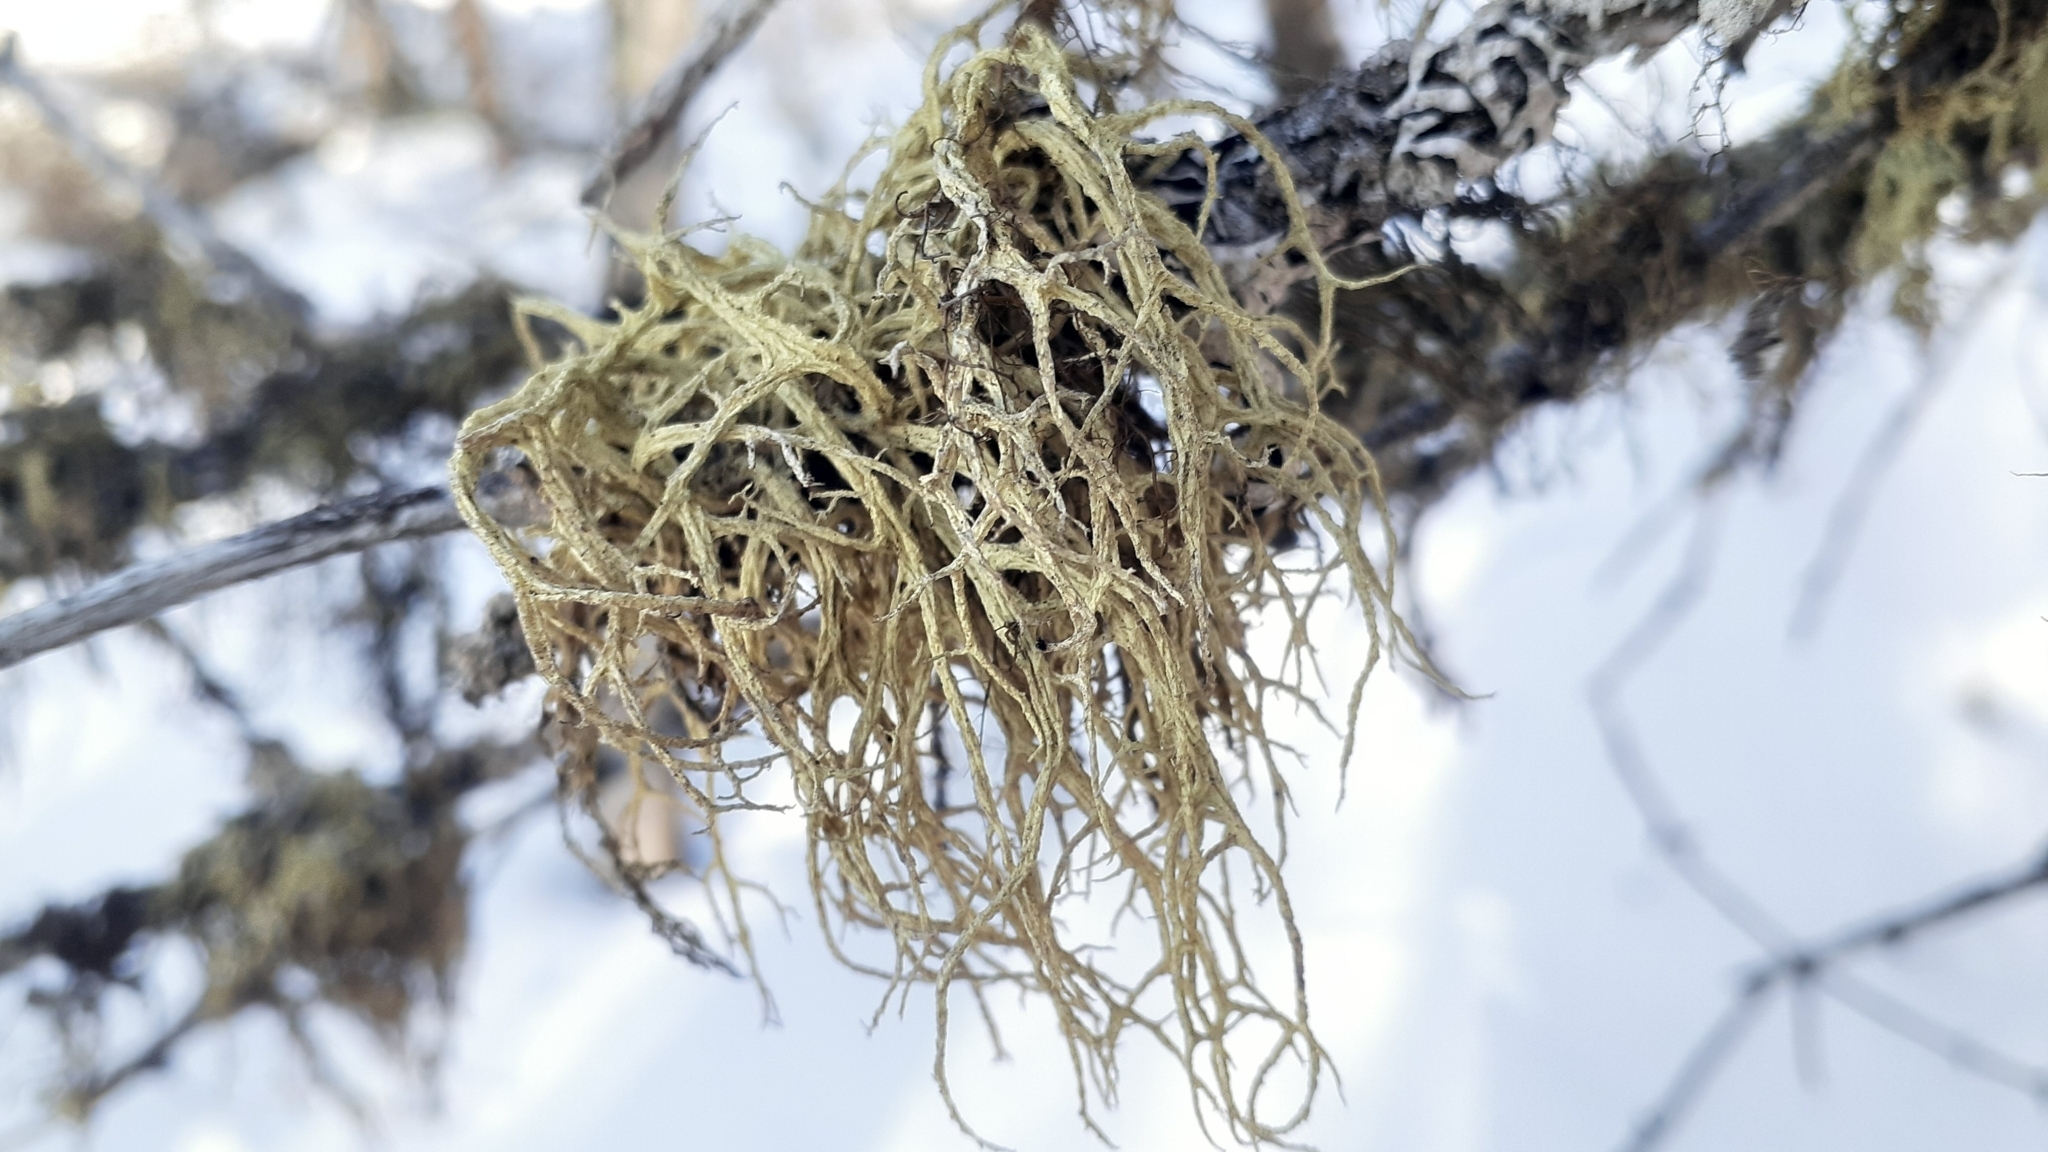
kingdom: Fungi
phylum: Ascomycota
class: Lecanoromycetes
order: Lecanorales
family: Parmeliaceae
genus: Evernia
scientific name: Evernia mesomorpha
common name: Boreal oak moss lichen
